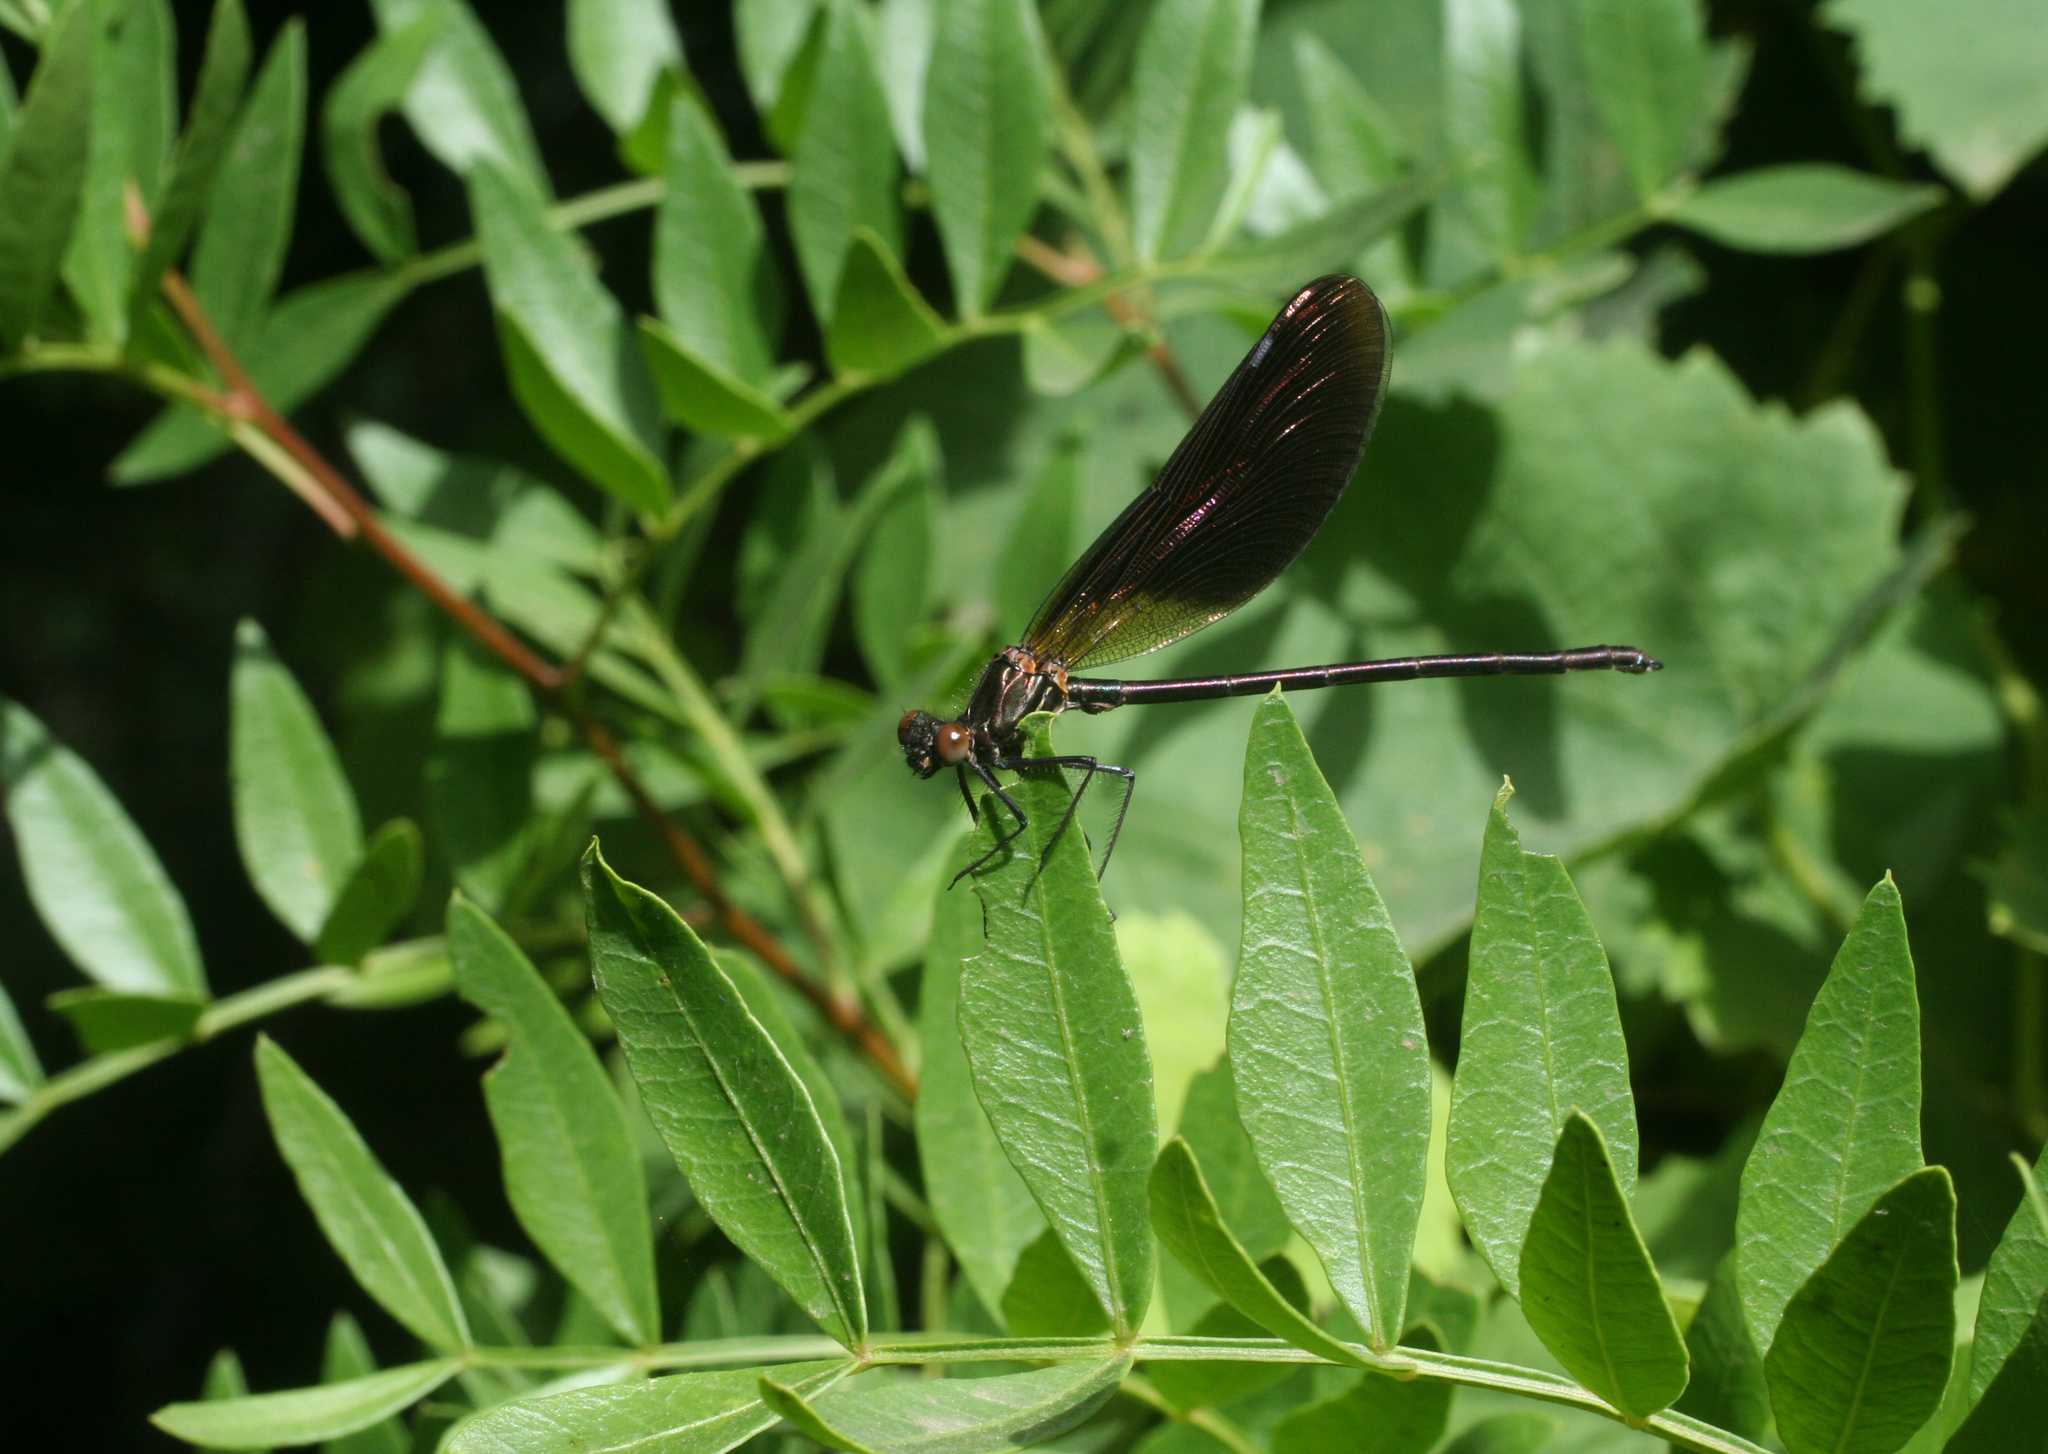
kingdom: Plantae
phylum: Tracheophyta
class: Magnoliopsida
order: Sapindales
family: Anacardiaceae
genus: Pistacia
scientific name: Pistacia lentiscus
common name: Lentisk
